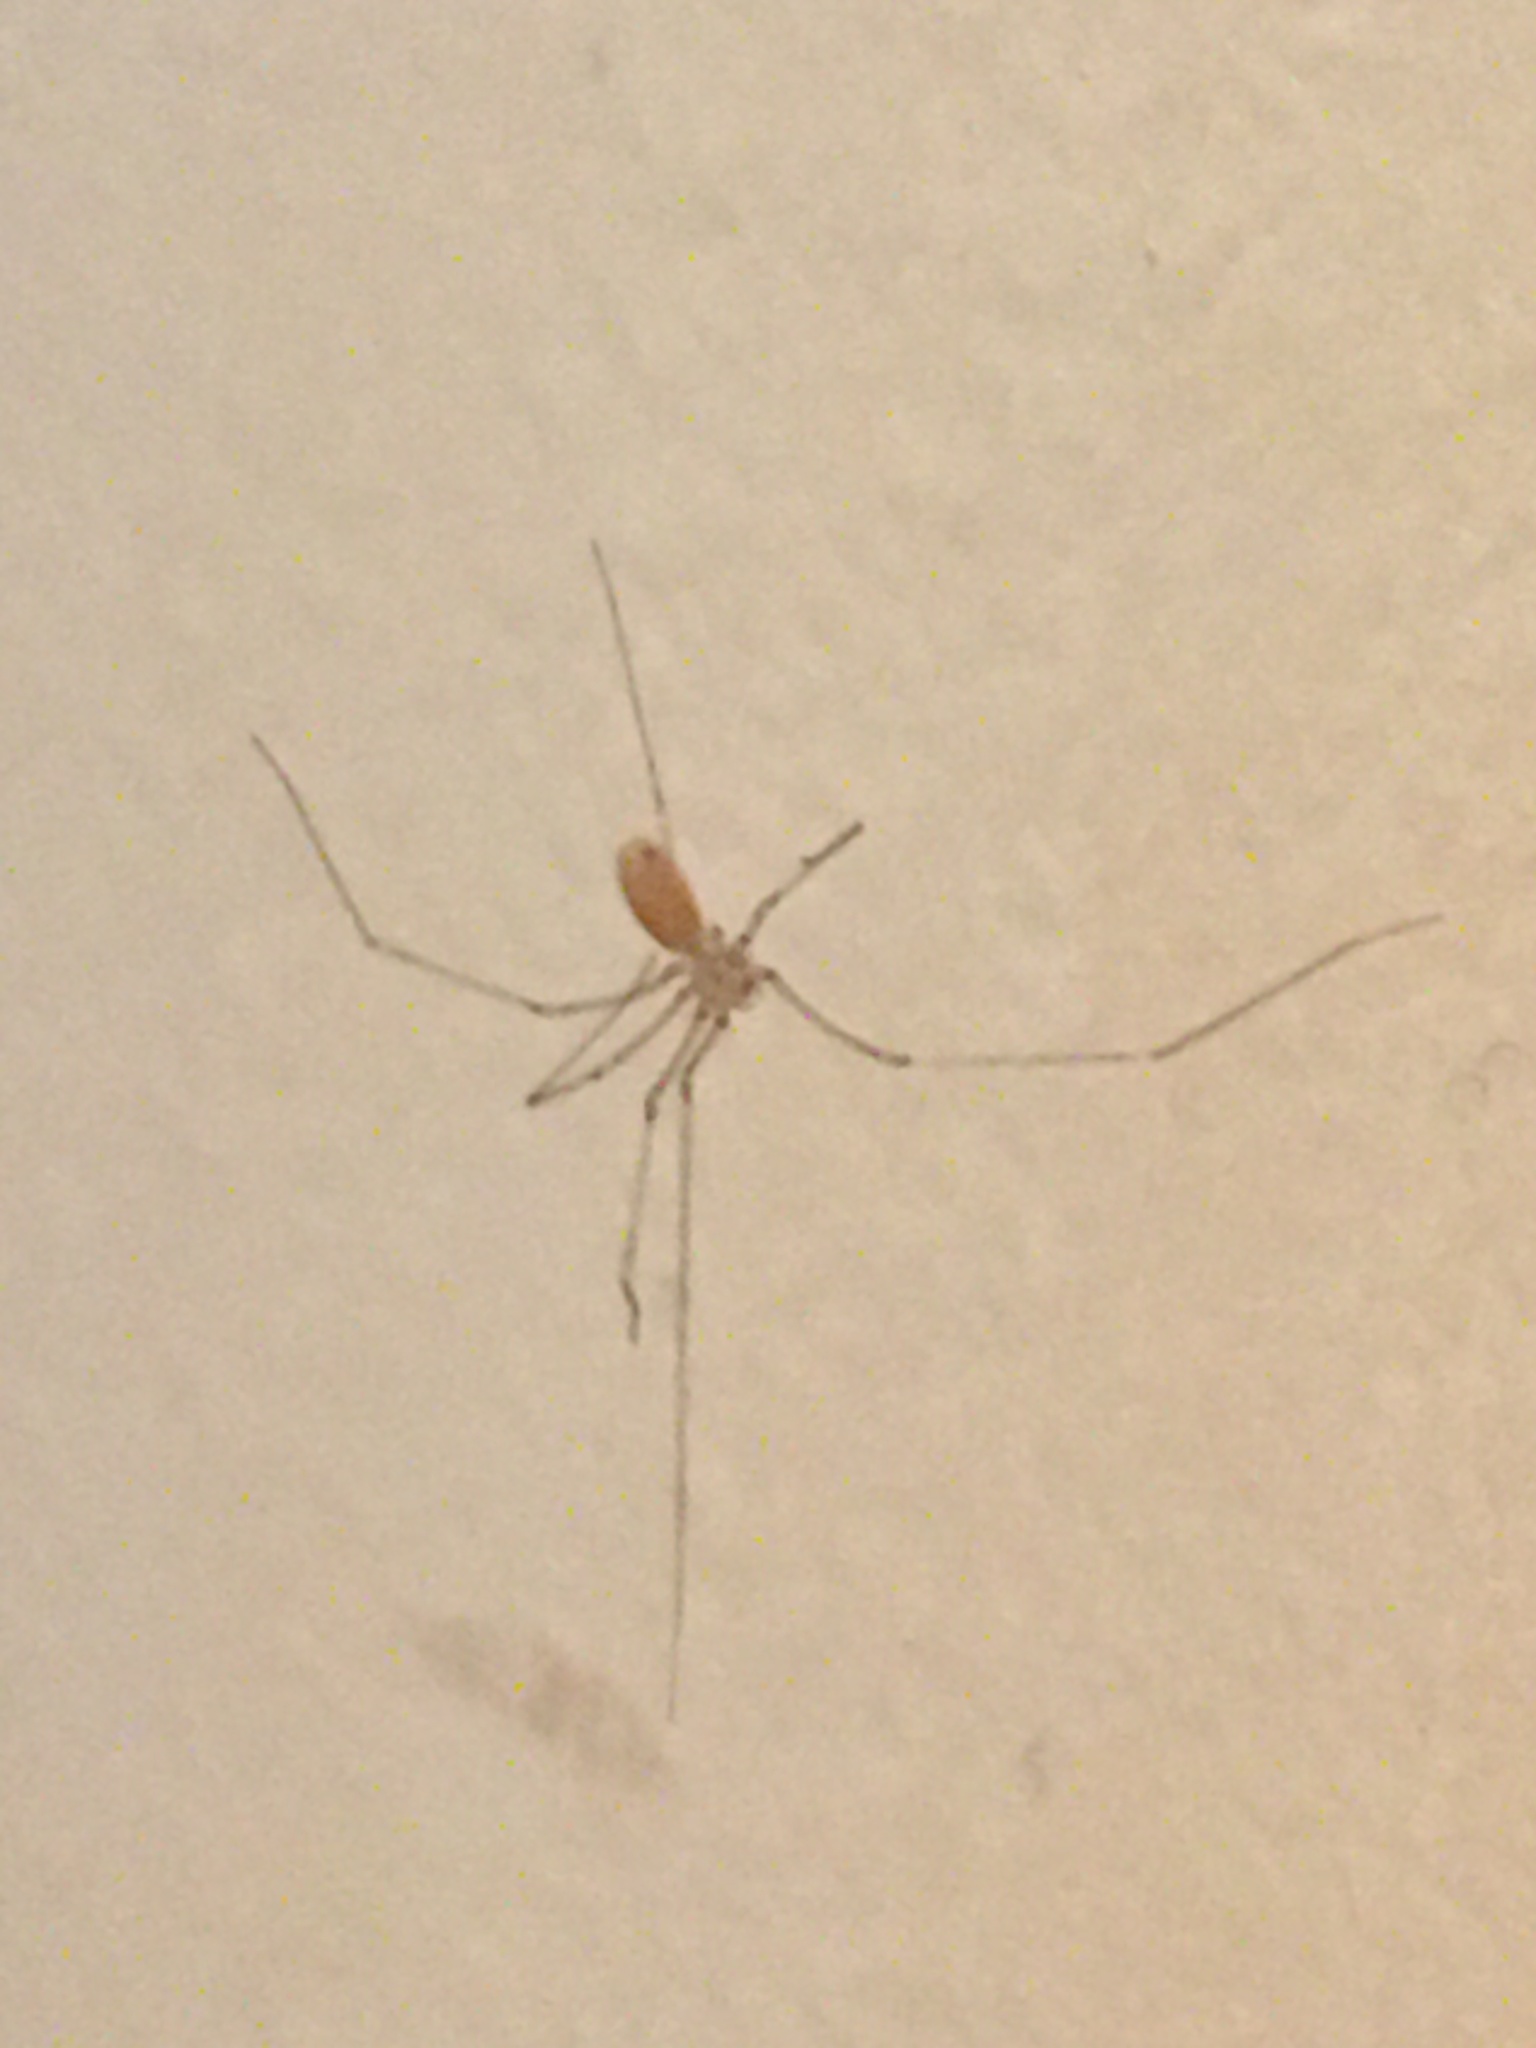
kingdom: Animalia
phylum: Arthropoda
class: Arachnida
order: Araneae
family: Pholcidae
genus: Pholcus
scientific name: Pholcus phalangioides
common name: Longbodied cellar spider
